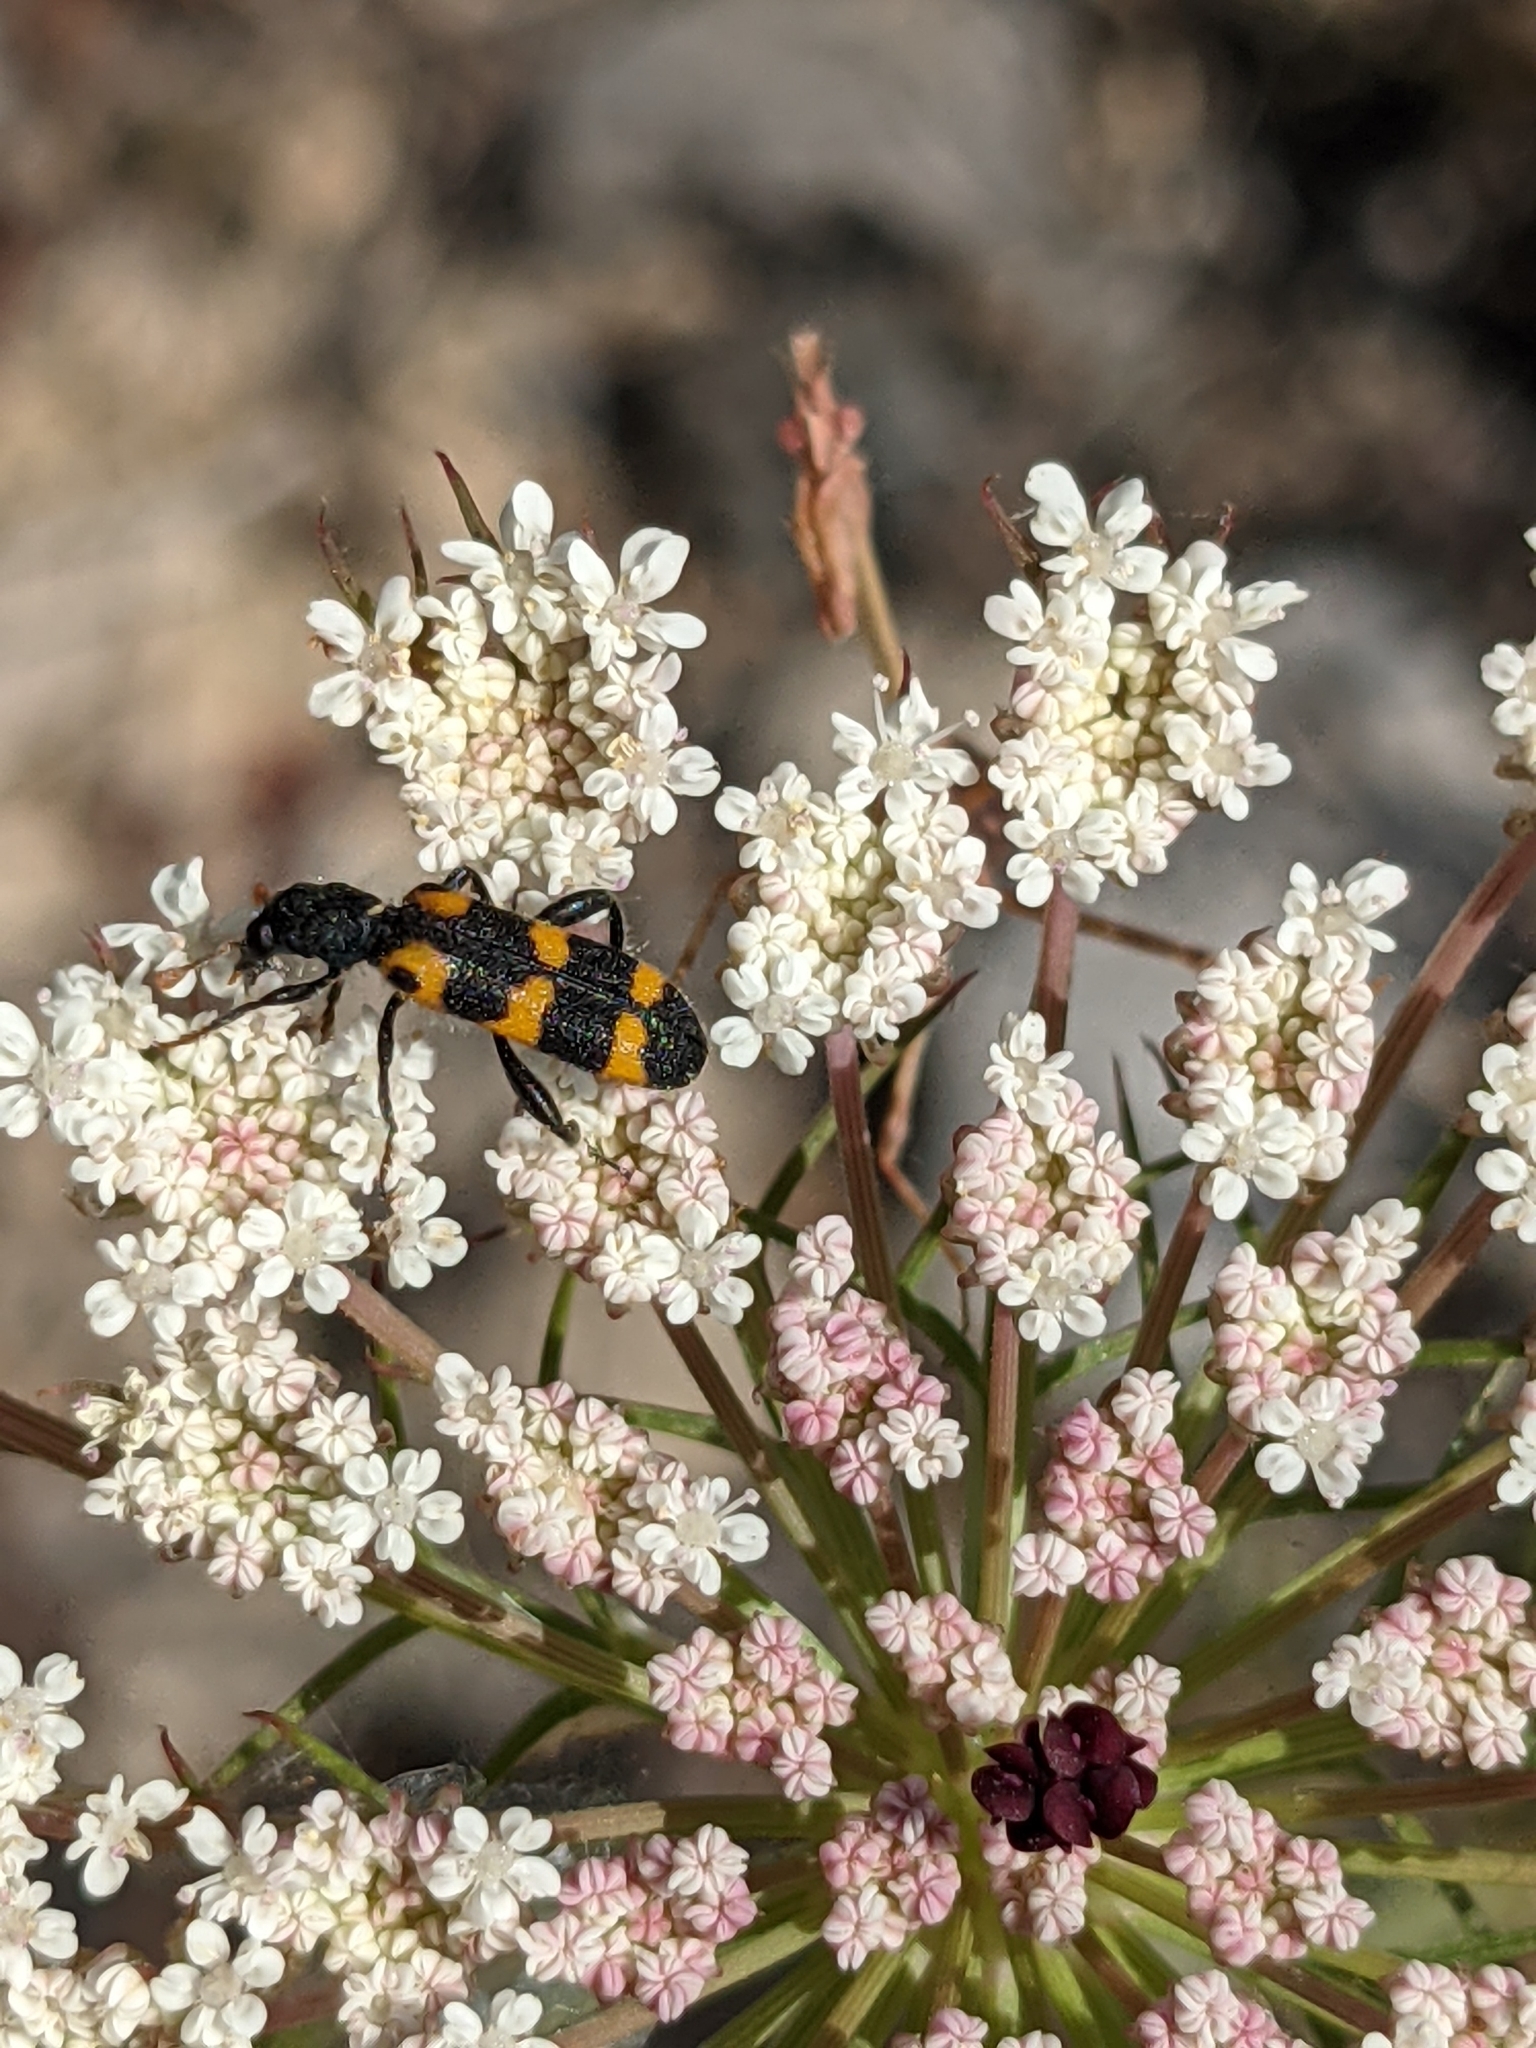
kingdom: Animalia
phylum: Arthropoda
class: Insecta
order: Coleoptera
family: Cleridae
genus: Trichodes
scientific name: Trichodes leucopsideus
